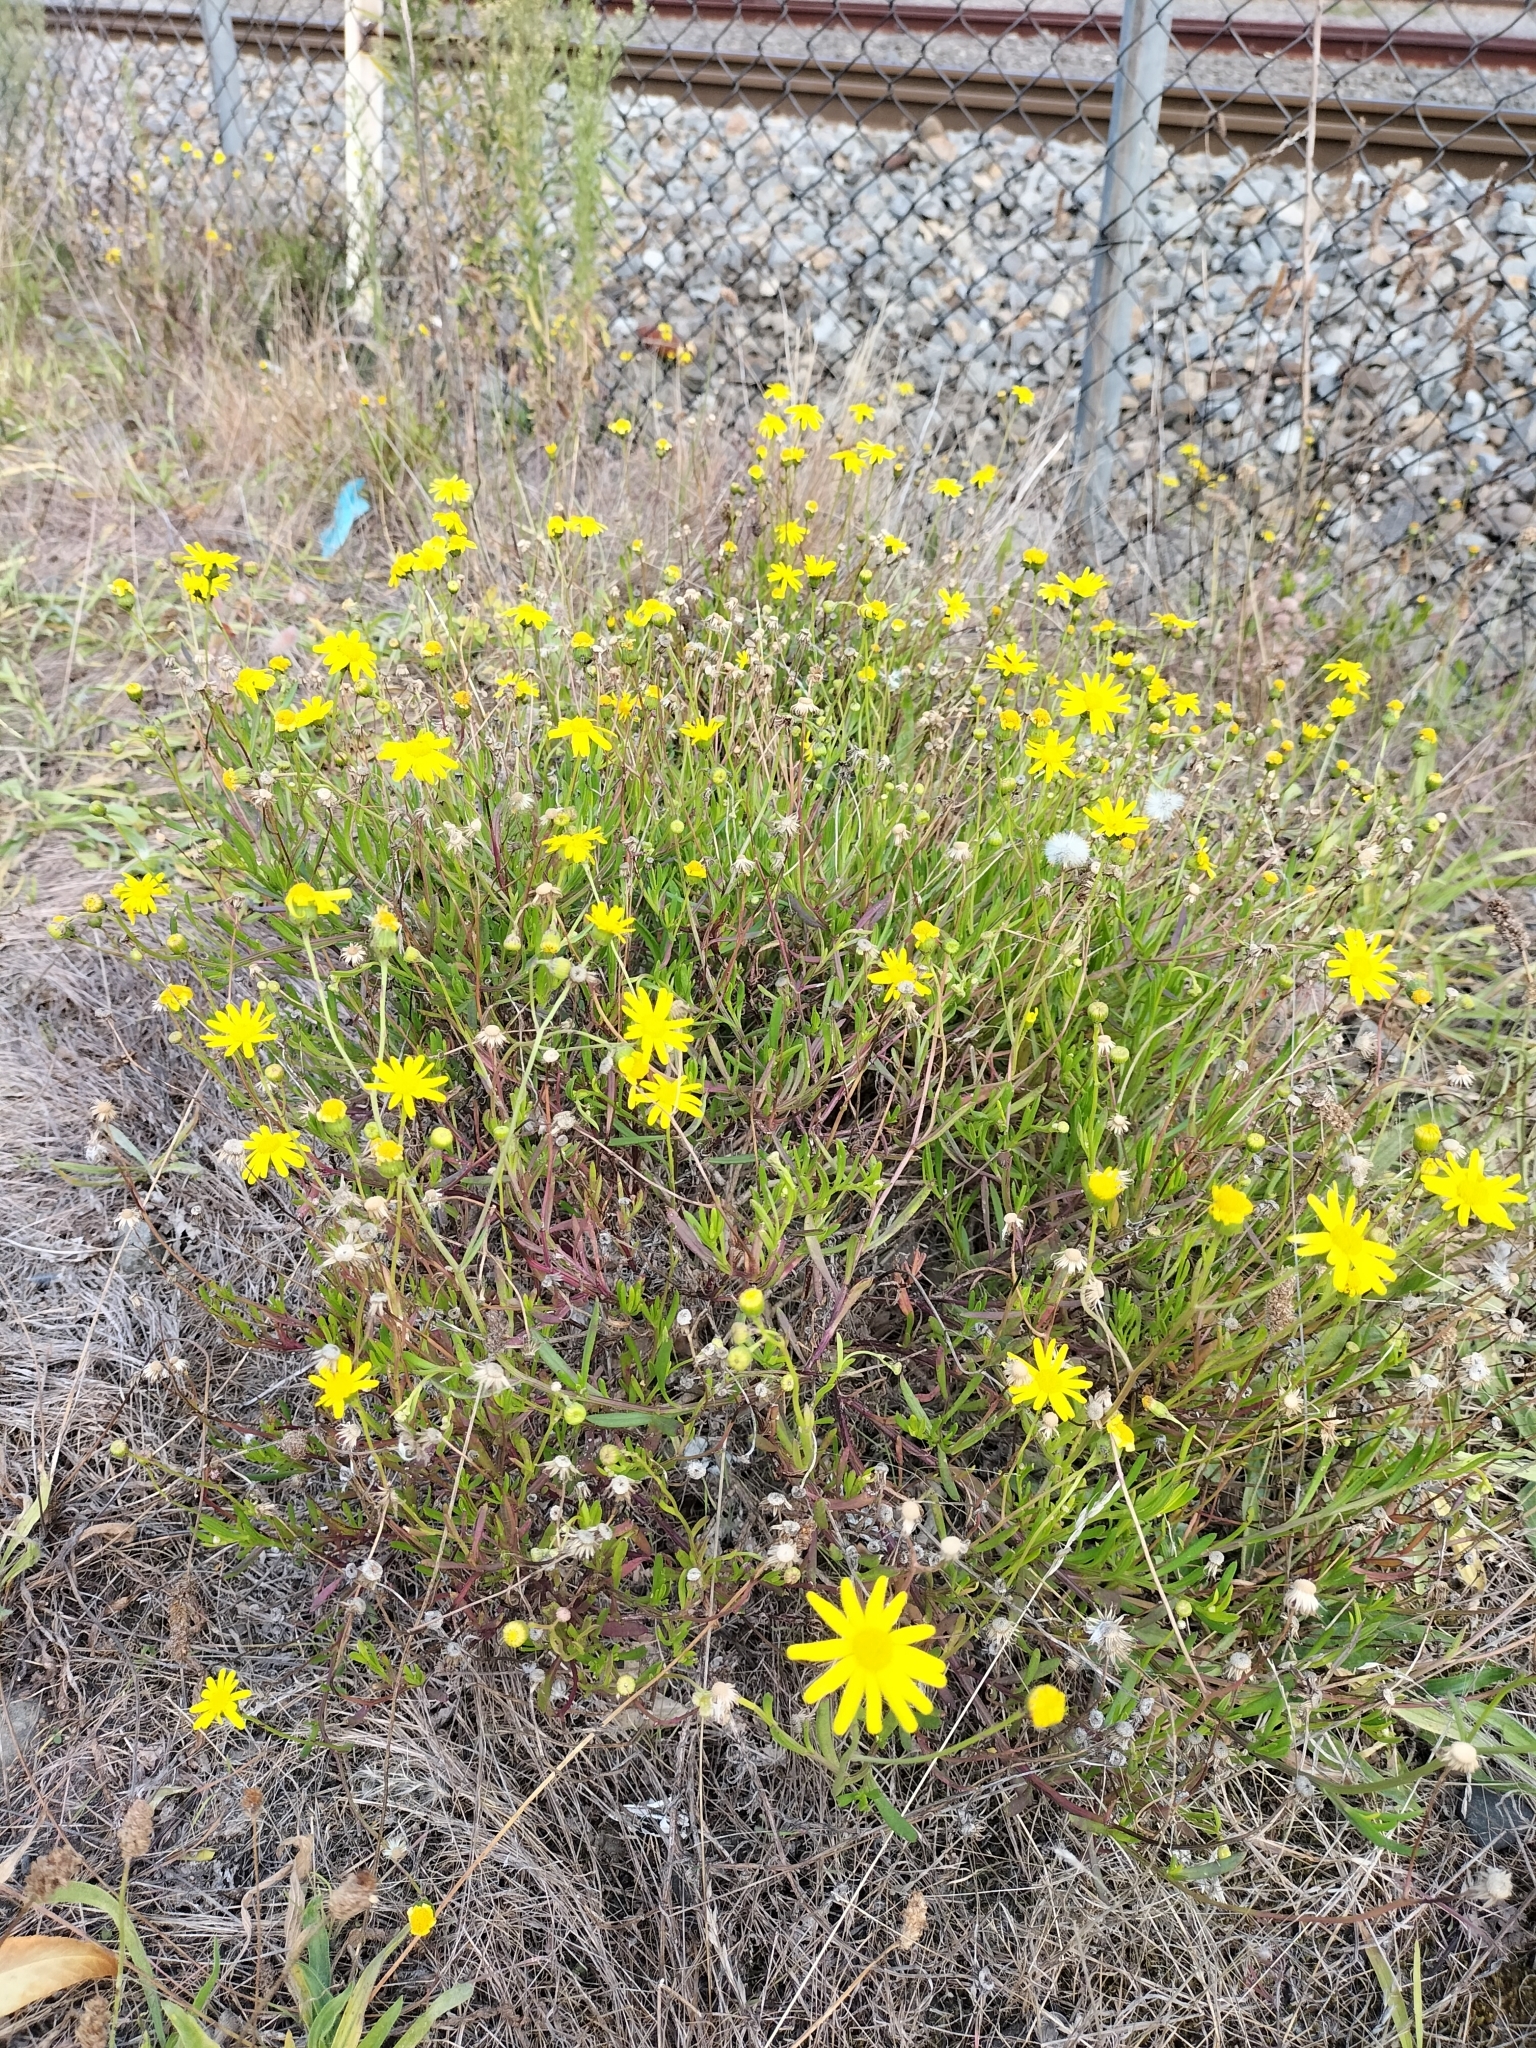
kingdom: Plantae
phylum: Tracheophyta
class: Magnoliopsida
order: Asterales
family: Asteraceae
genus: Senecio
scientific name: Senecio skirrhodon
